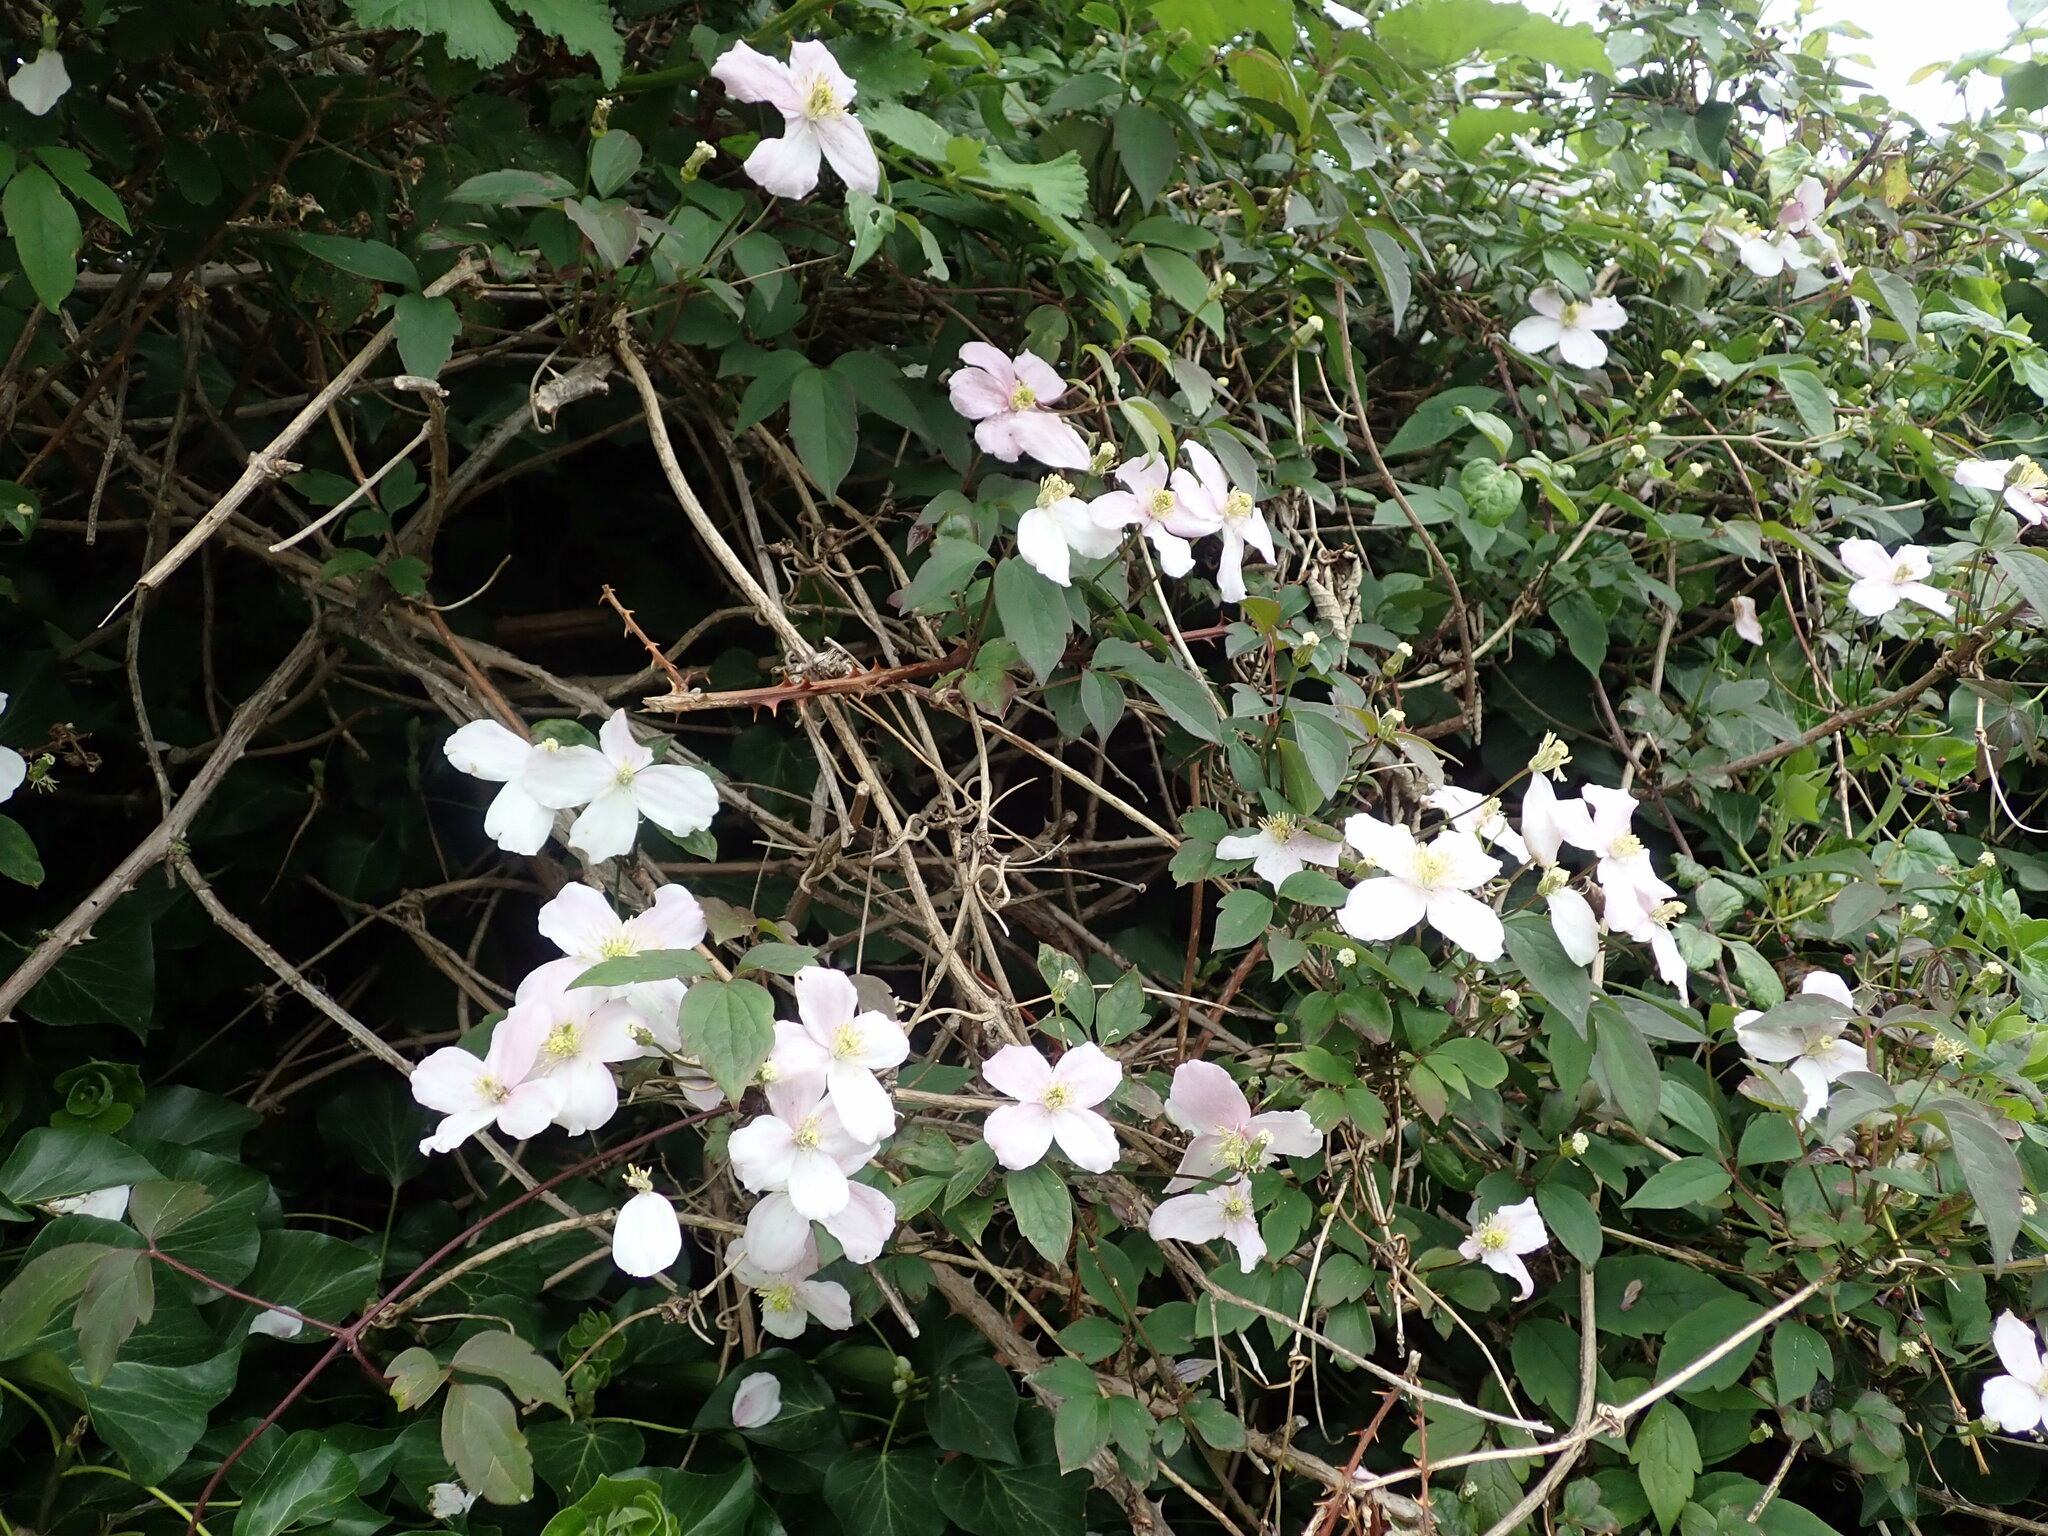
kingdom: Plantae
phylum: Tracheophyta
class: Magnoliopsida
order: Ranunculales
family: Ranunculaceae
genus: Clematis
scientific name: Clematis montana
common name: Himalayan clematis
